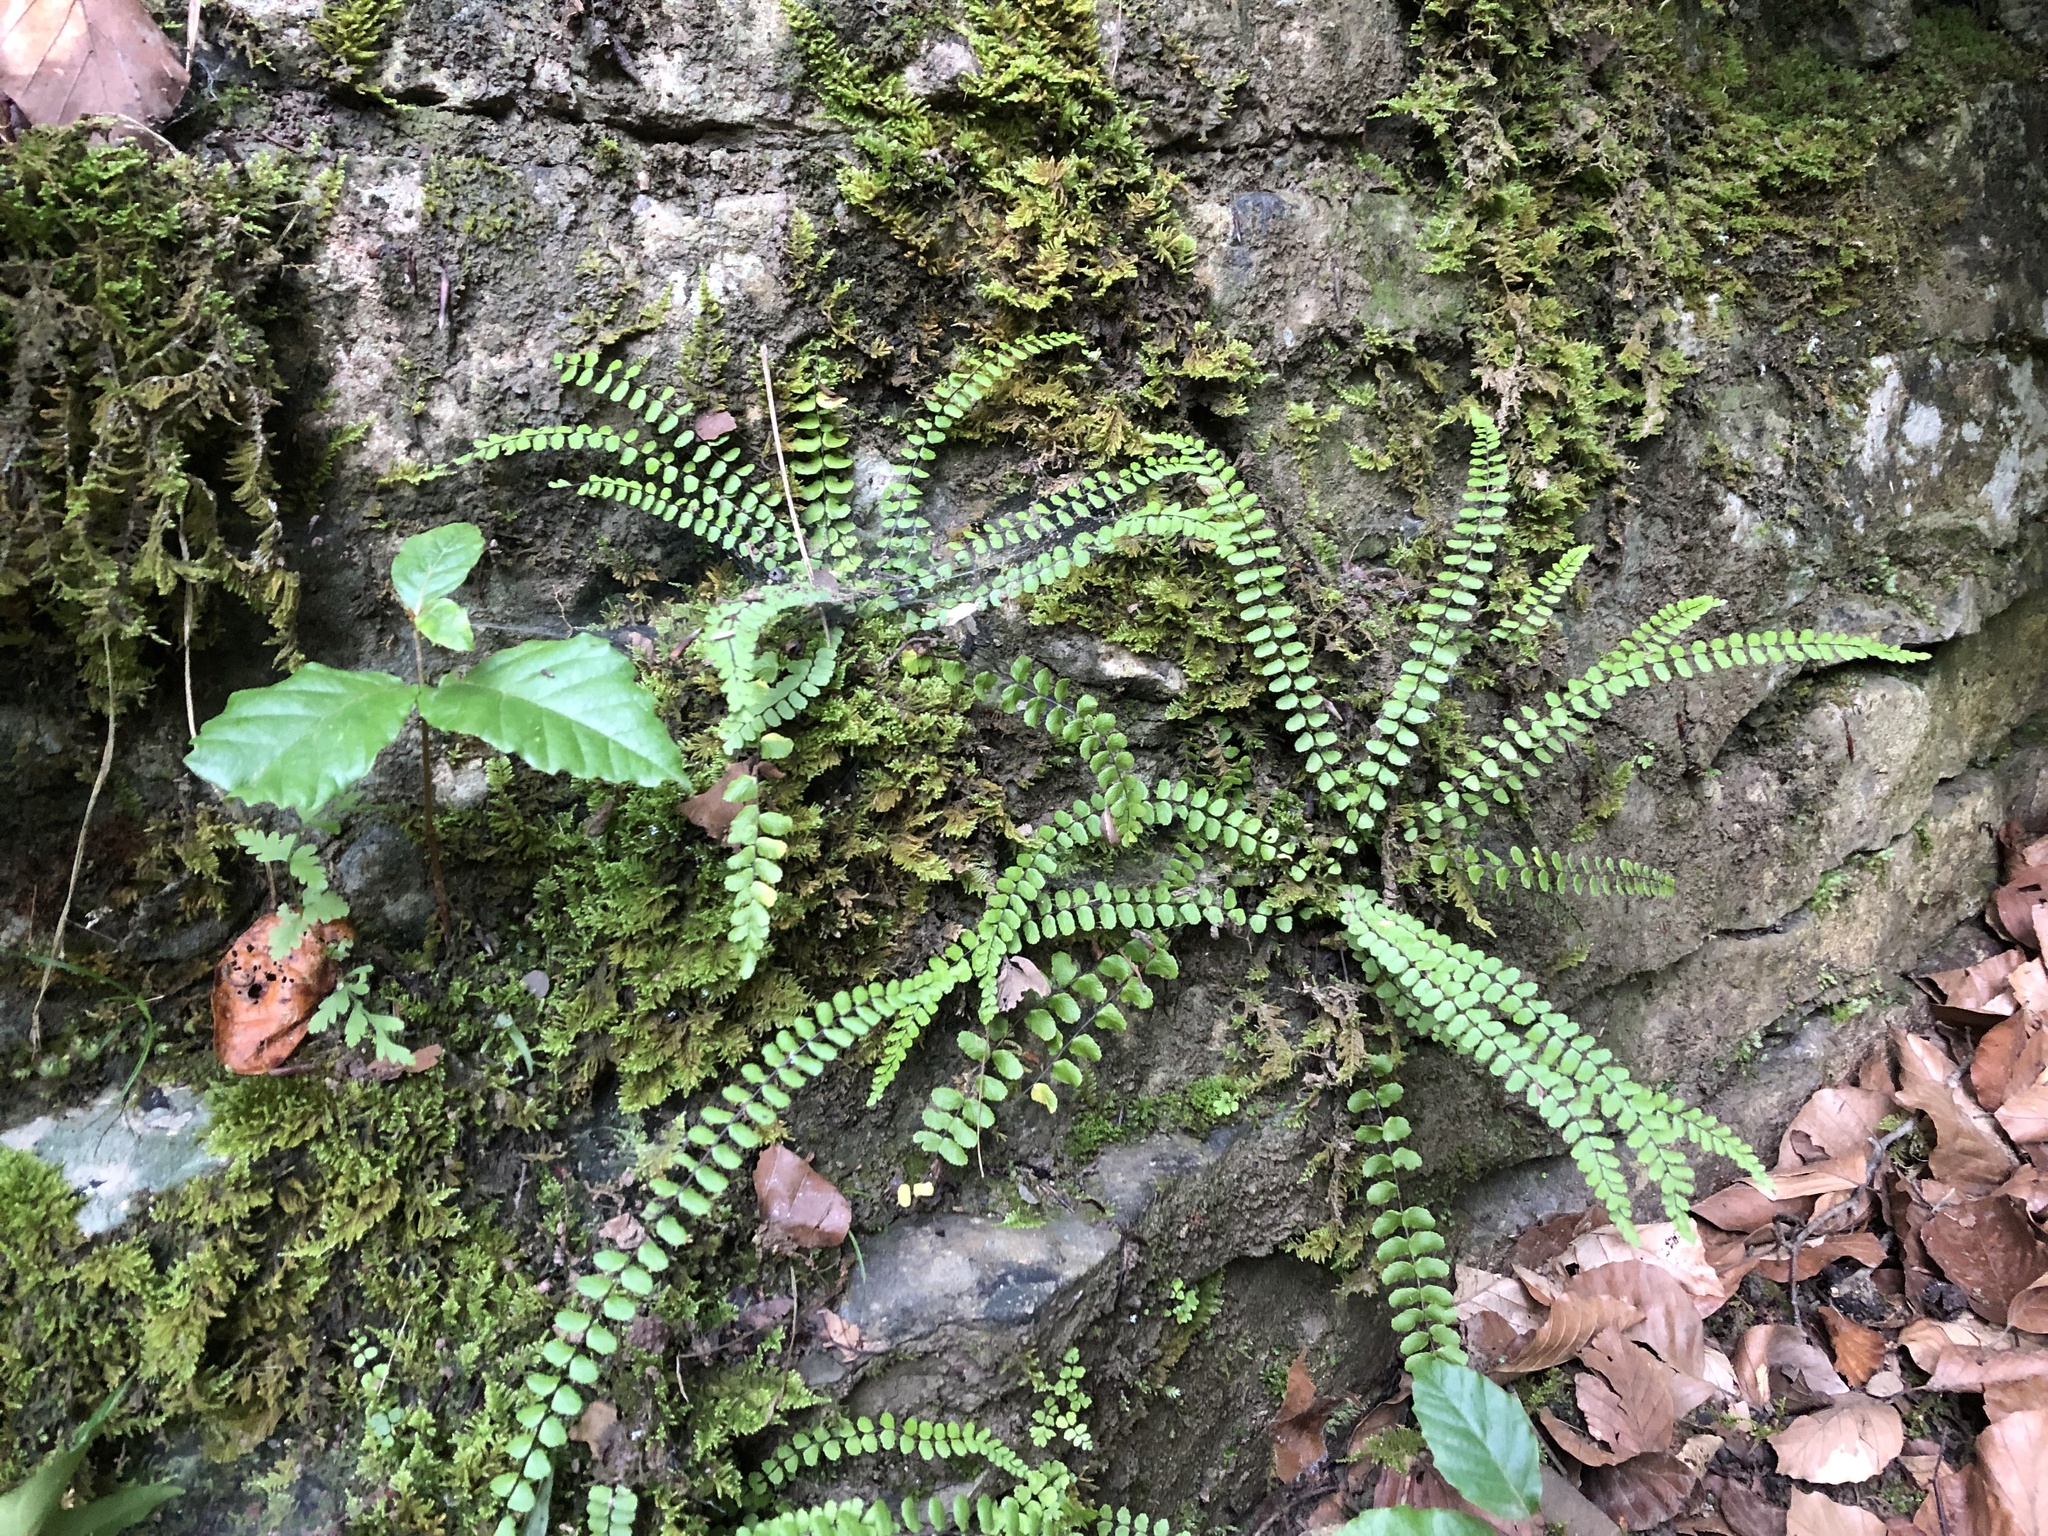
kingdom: Plantae
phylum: Tracheophyta
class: Polypodiopsida
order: Polypodiales
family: Aspleniaceae
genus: Asplenium
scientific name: Asplenium trichomanes
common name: Maidenhair spleenwort
